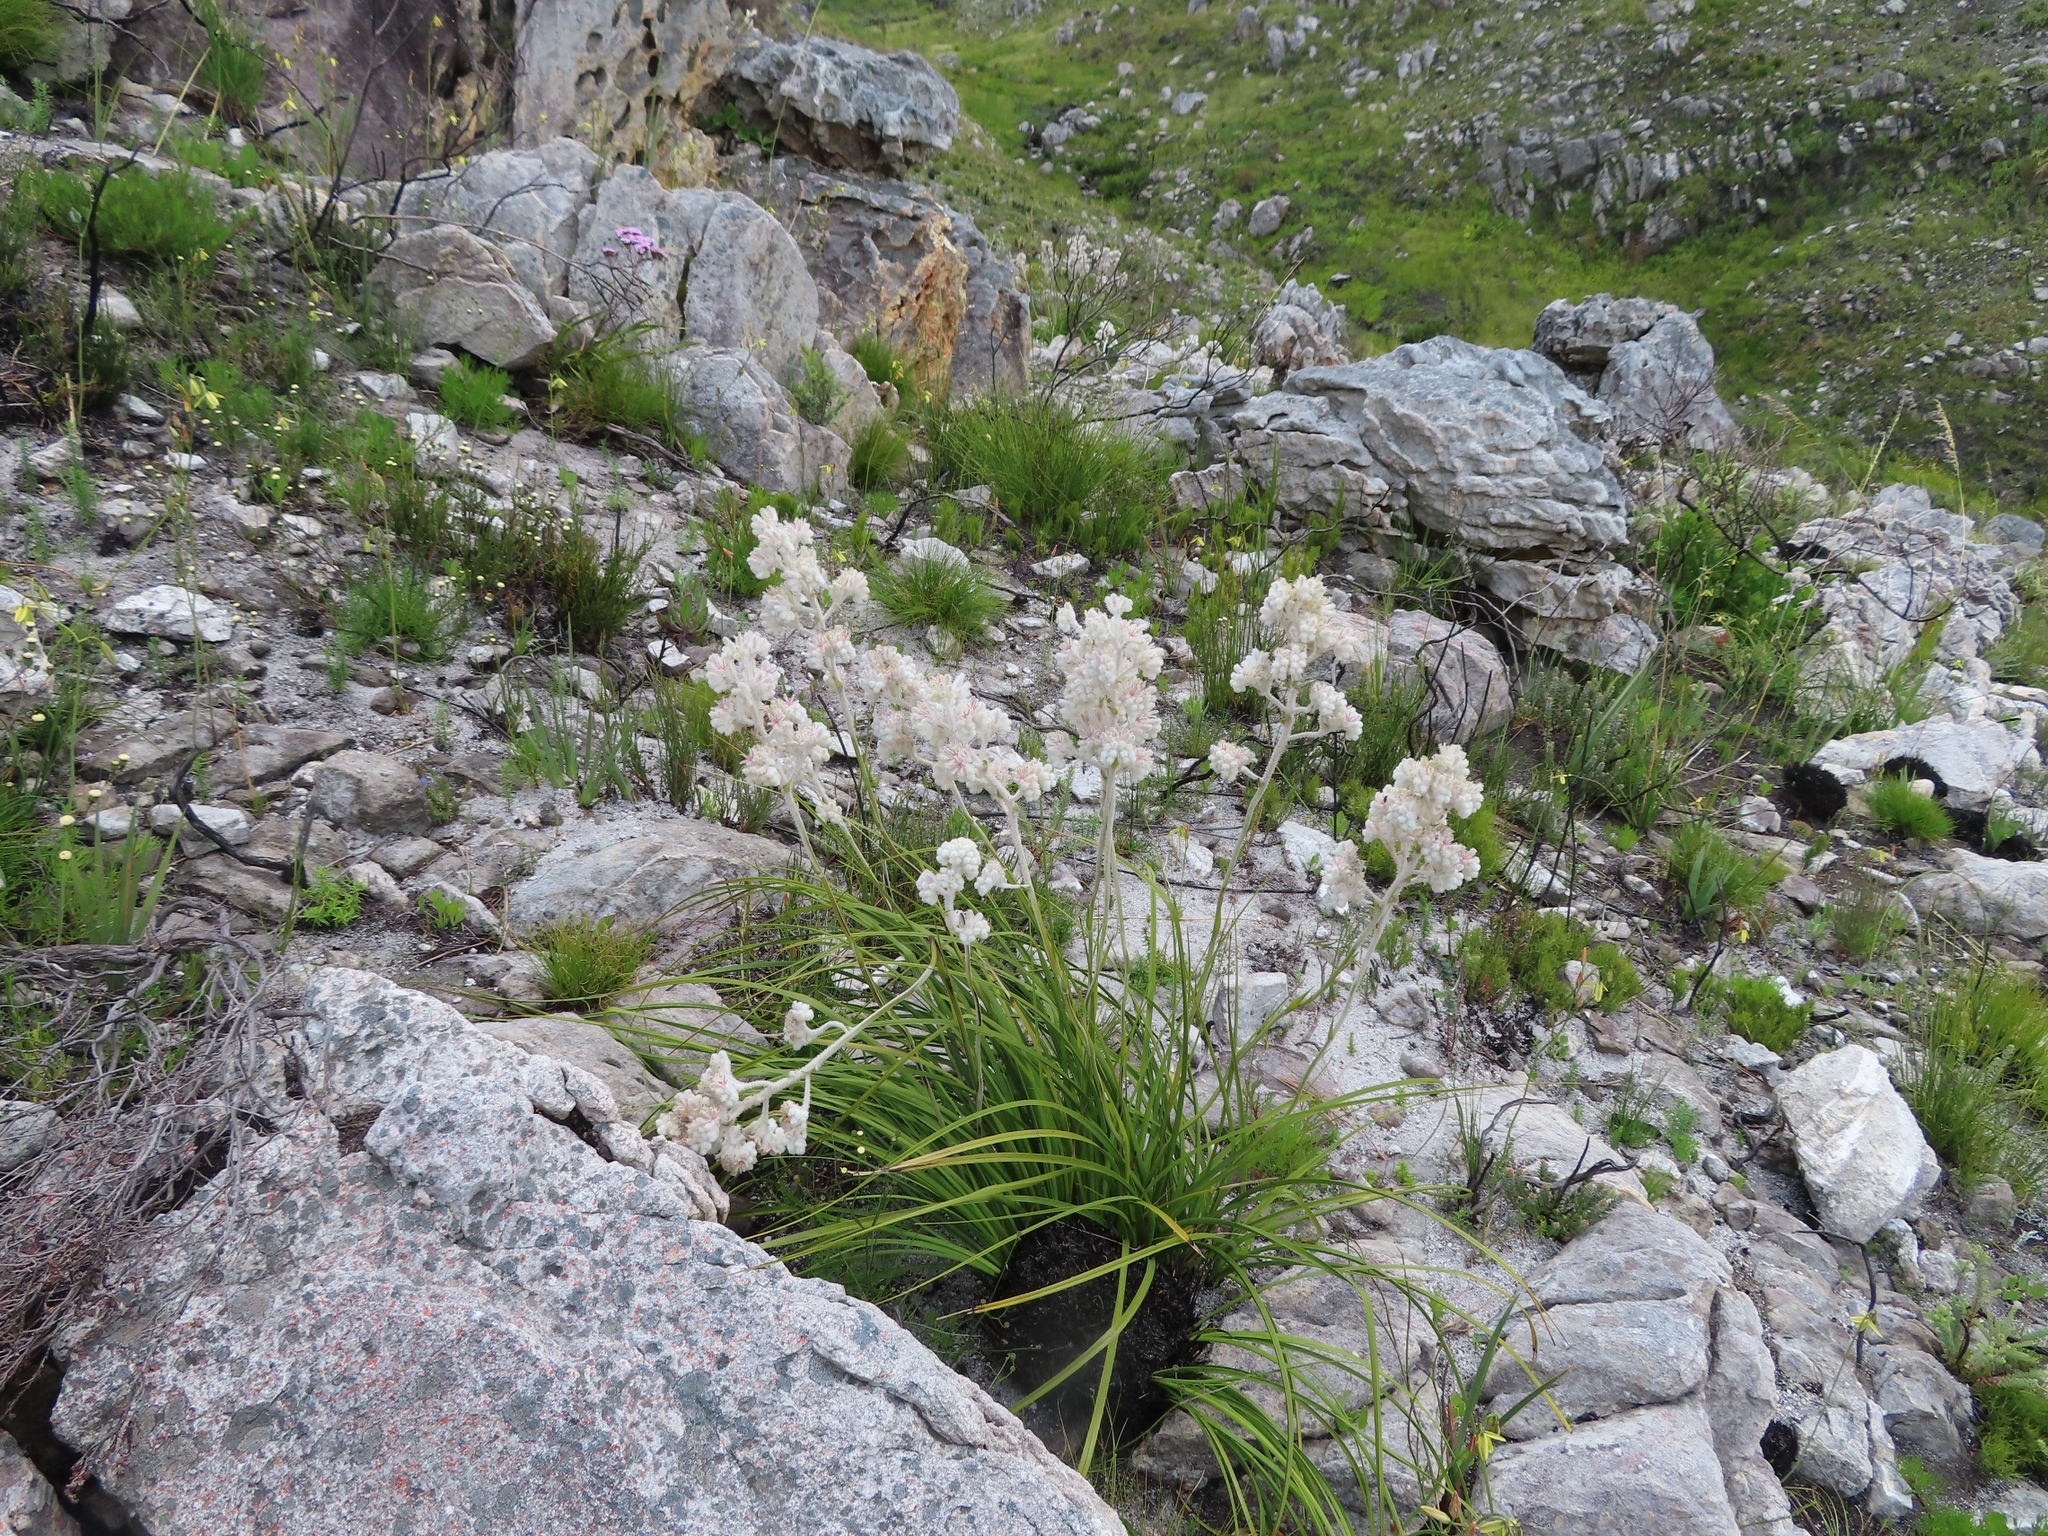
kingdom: Plantae
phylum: Tracheophyta
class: Liliopsida
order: Asparagales
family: Lanariaceae
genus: Lanaria
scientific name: Lanaria lanata
